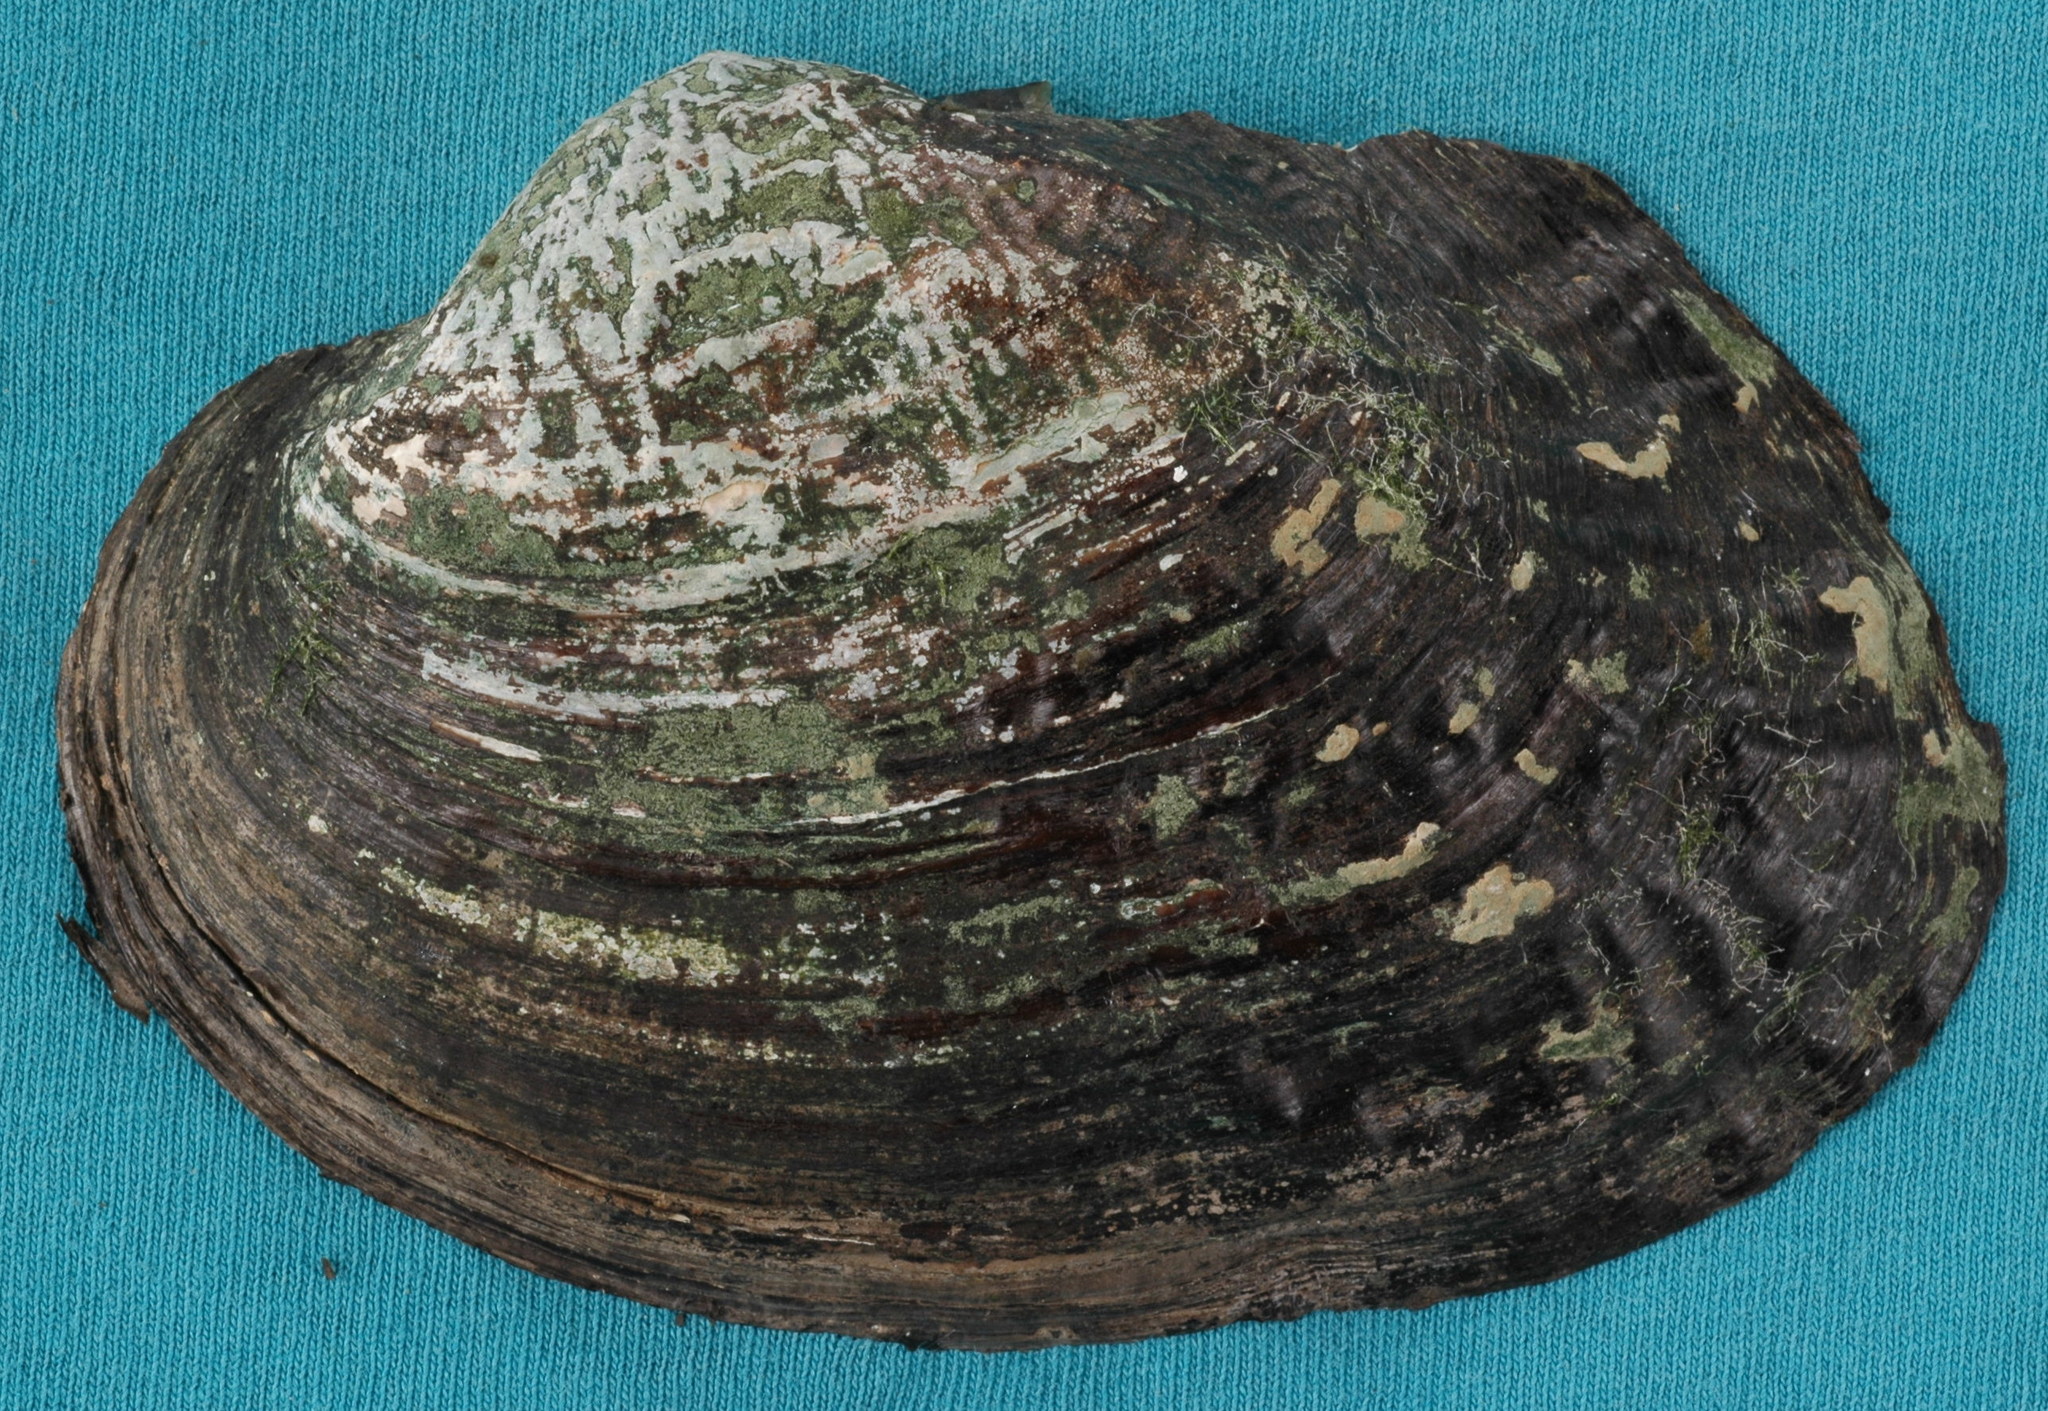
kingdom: Animalia
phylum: Mollusca
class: Bivalvia
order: Unionida
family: Unionidae
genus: Arcidens
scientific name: Arcidens confragosus
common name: Rock pocketbook
